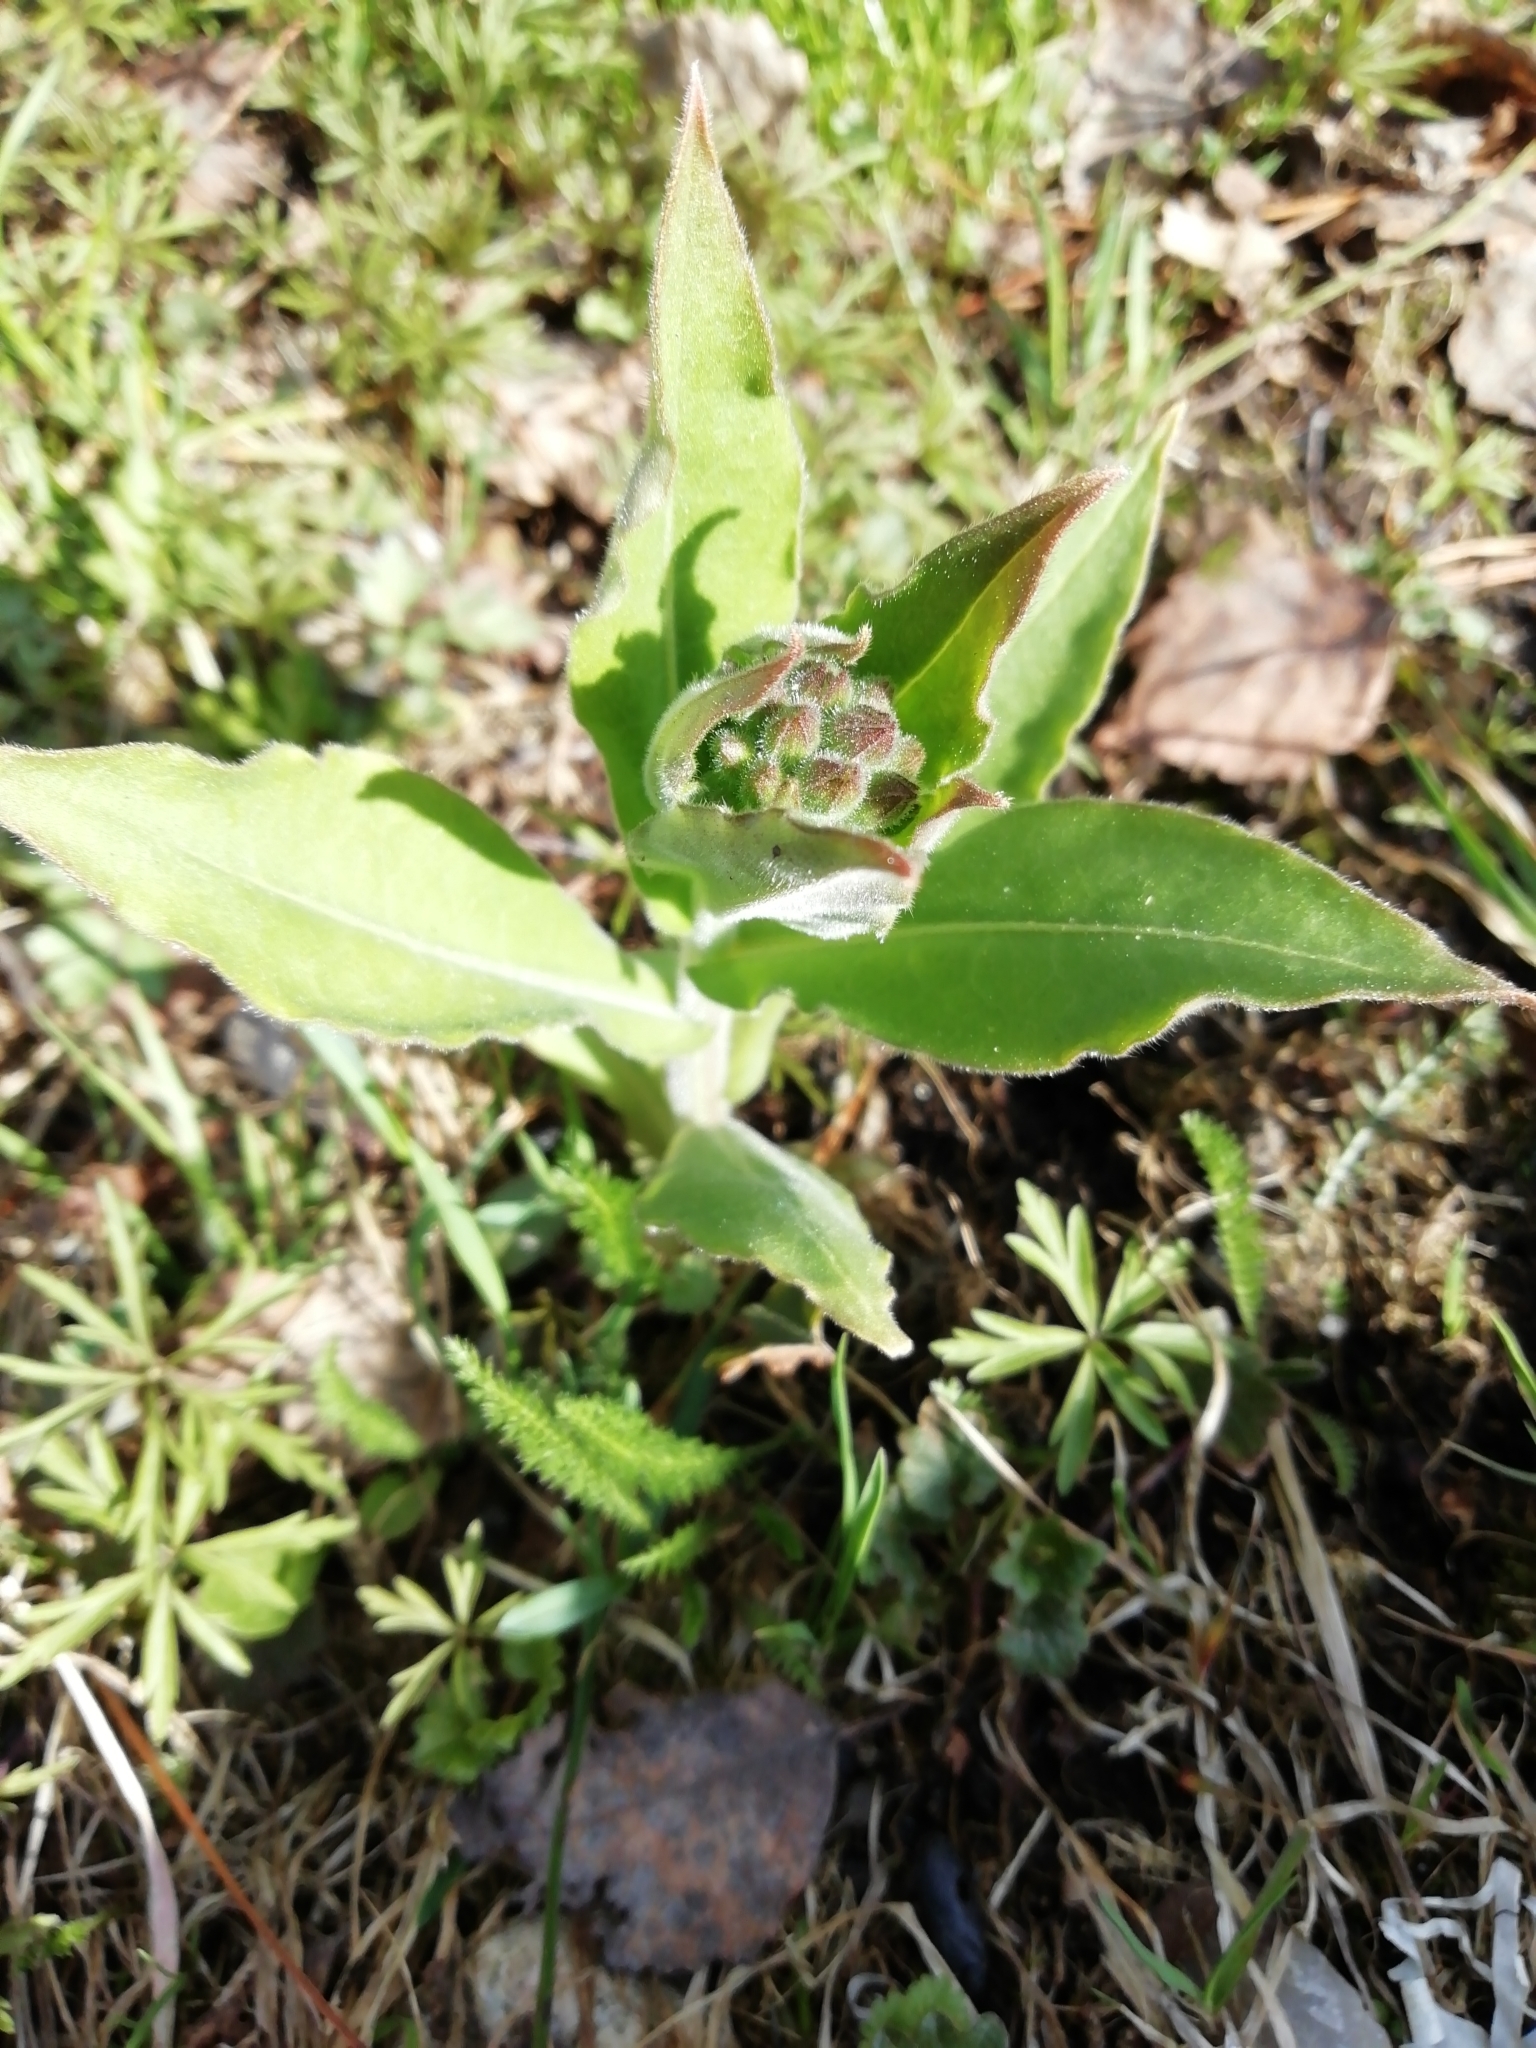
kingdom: Plantae
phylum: Tracheophyta
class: Magnoliopsida
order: Boraginales
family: Boraginaceae
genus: Pulmonaria
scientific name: Pulmonaria mollis
